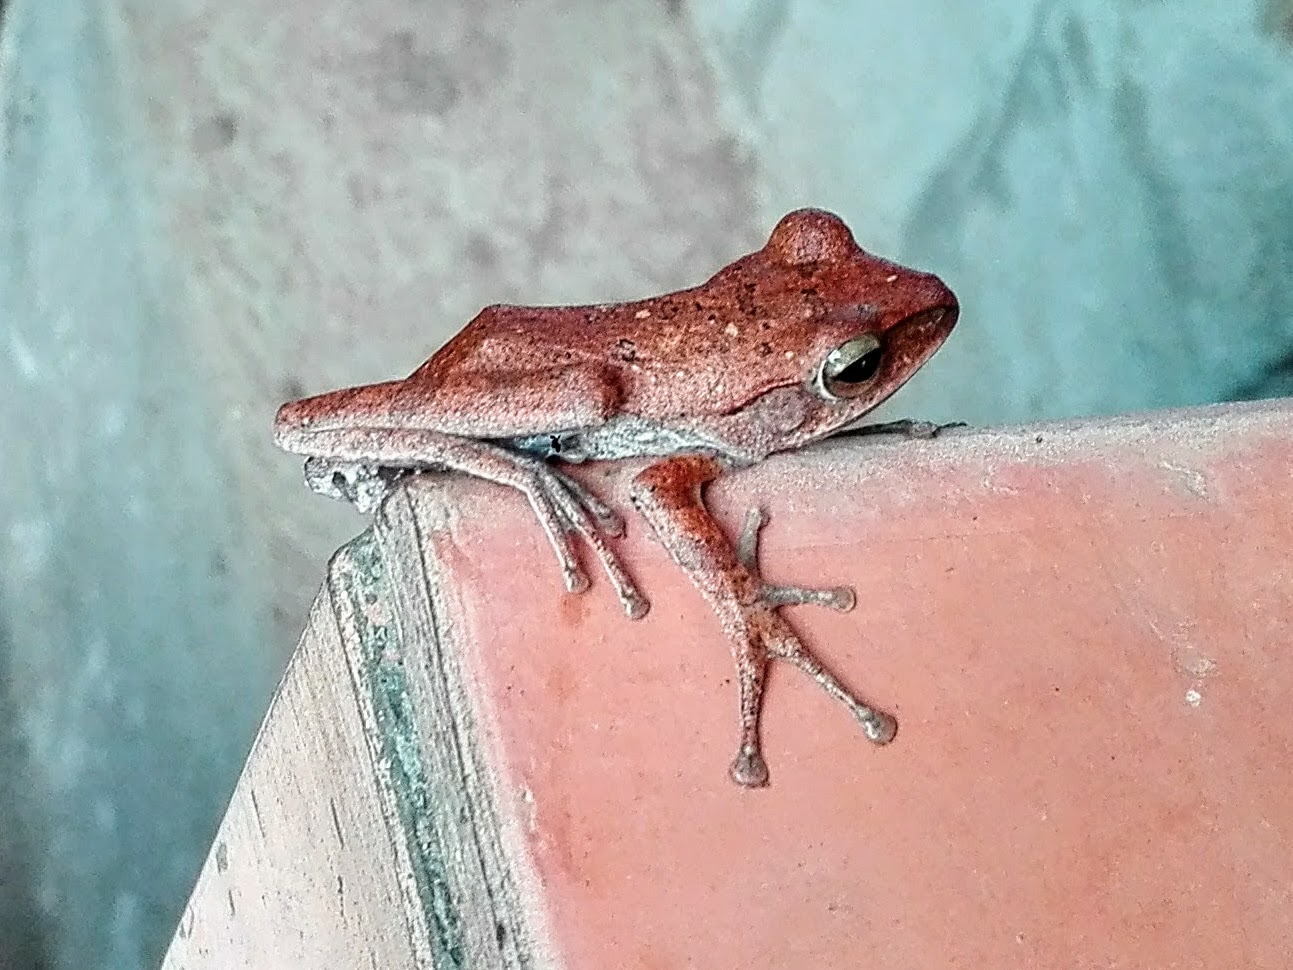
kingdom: Animalia
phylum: Chordata
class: Amphibia
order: Anura
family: Rhacophoridae
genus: Polypedates
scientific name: Polypedates megacephalus
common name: Hong kong whipping frog
